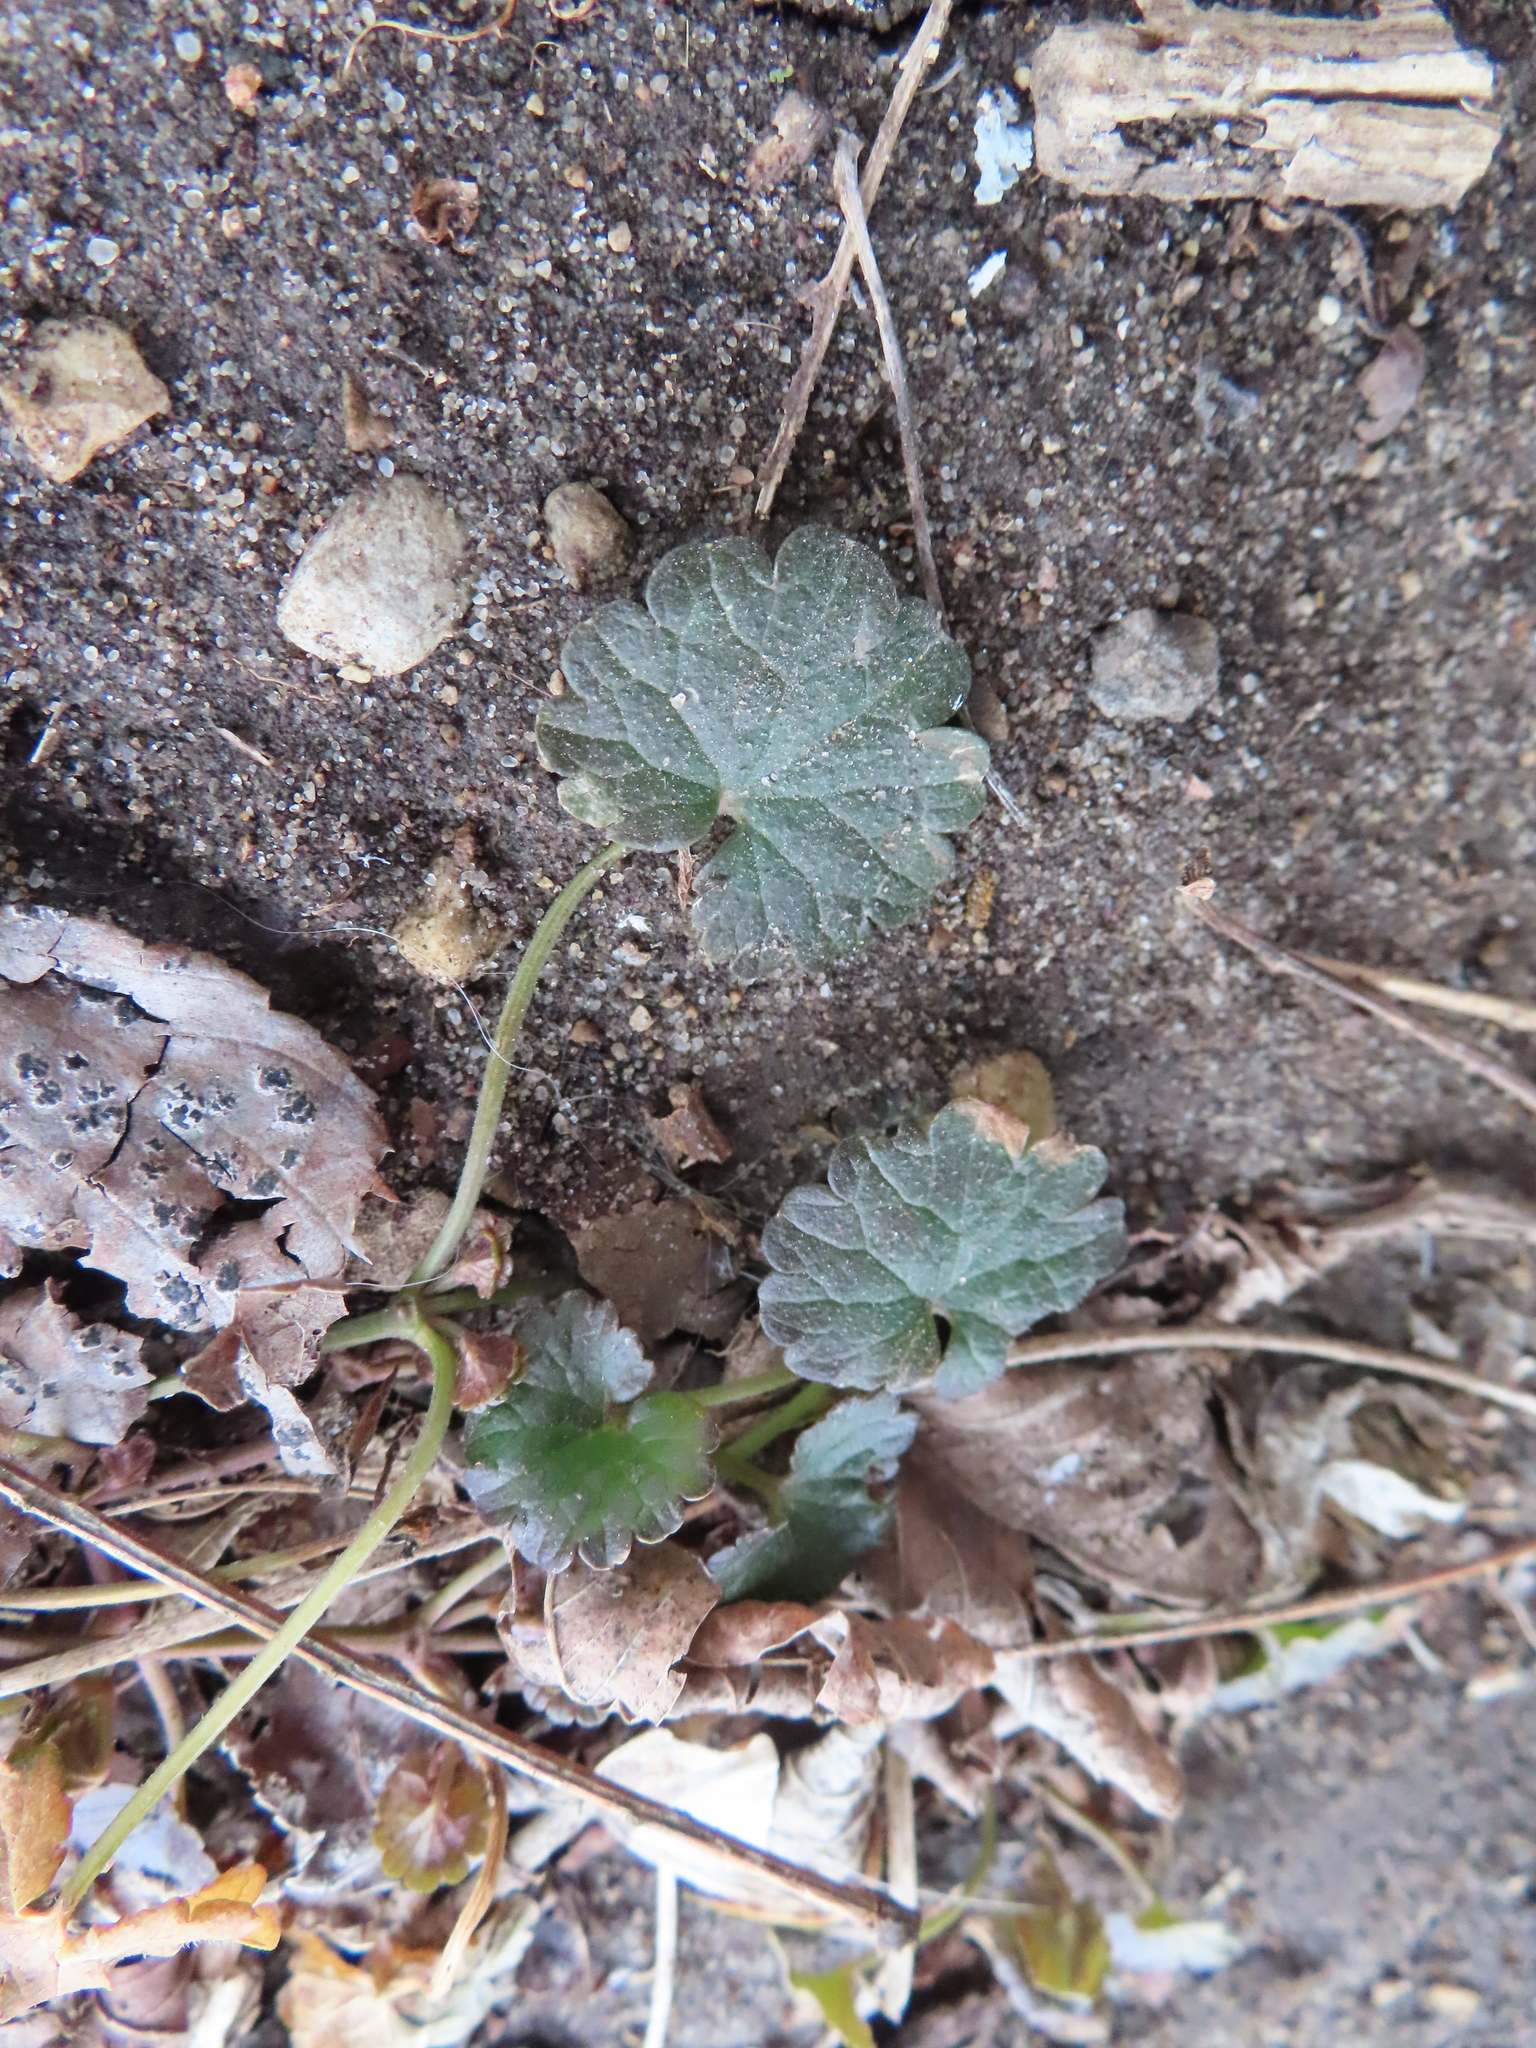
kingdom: Plantae
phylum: Tracheophyta
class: Magnoliopsida
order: Lamiales
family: Lamiaceae
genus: Glechoma
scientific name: Glechoma hederacea
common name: Ground ivy
